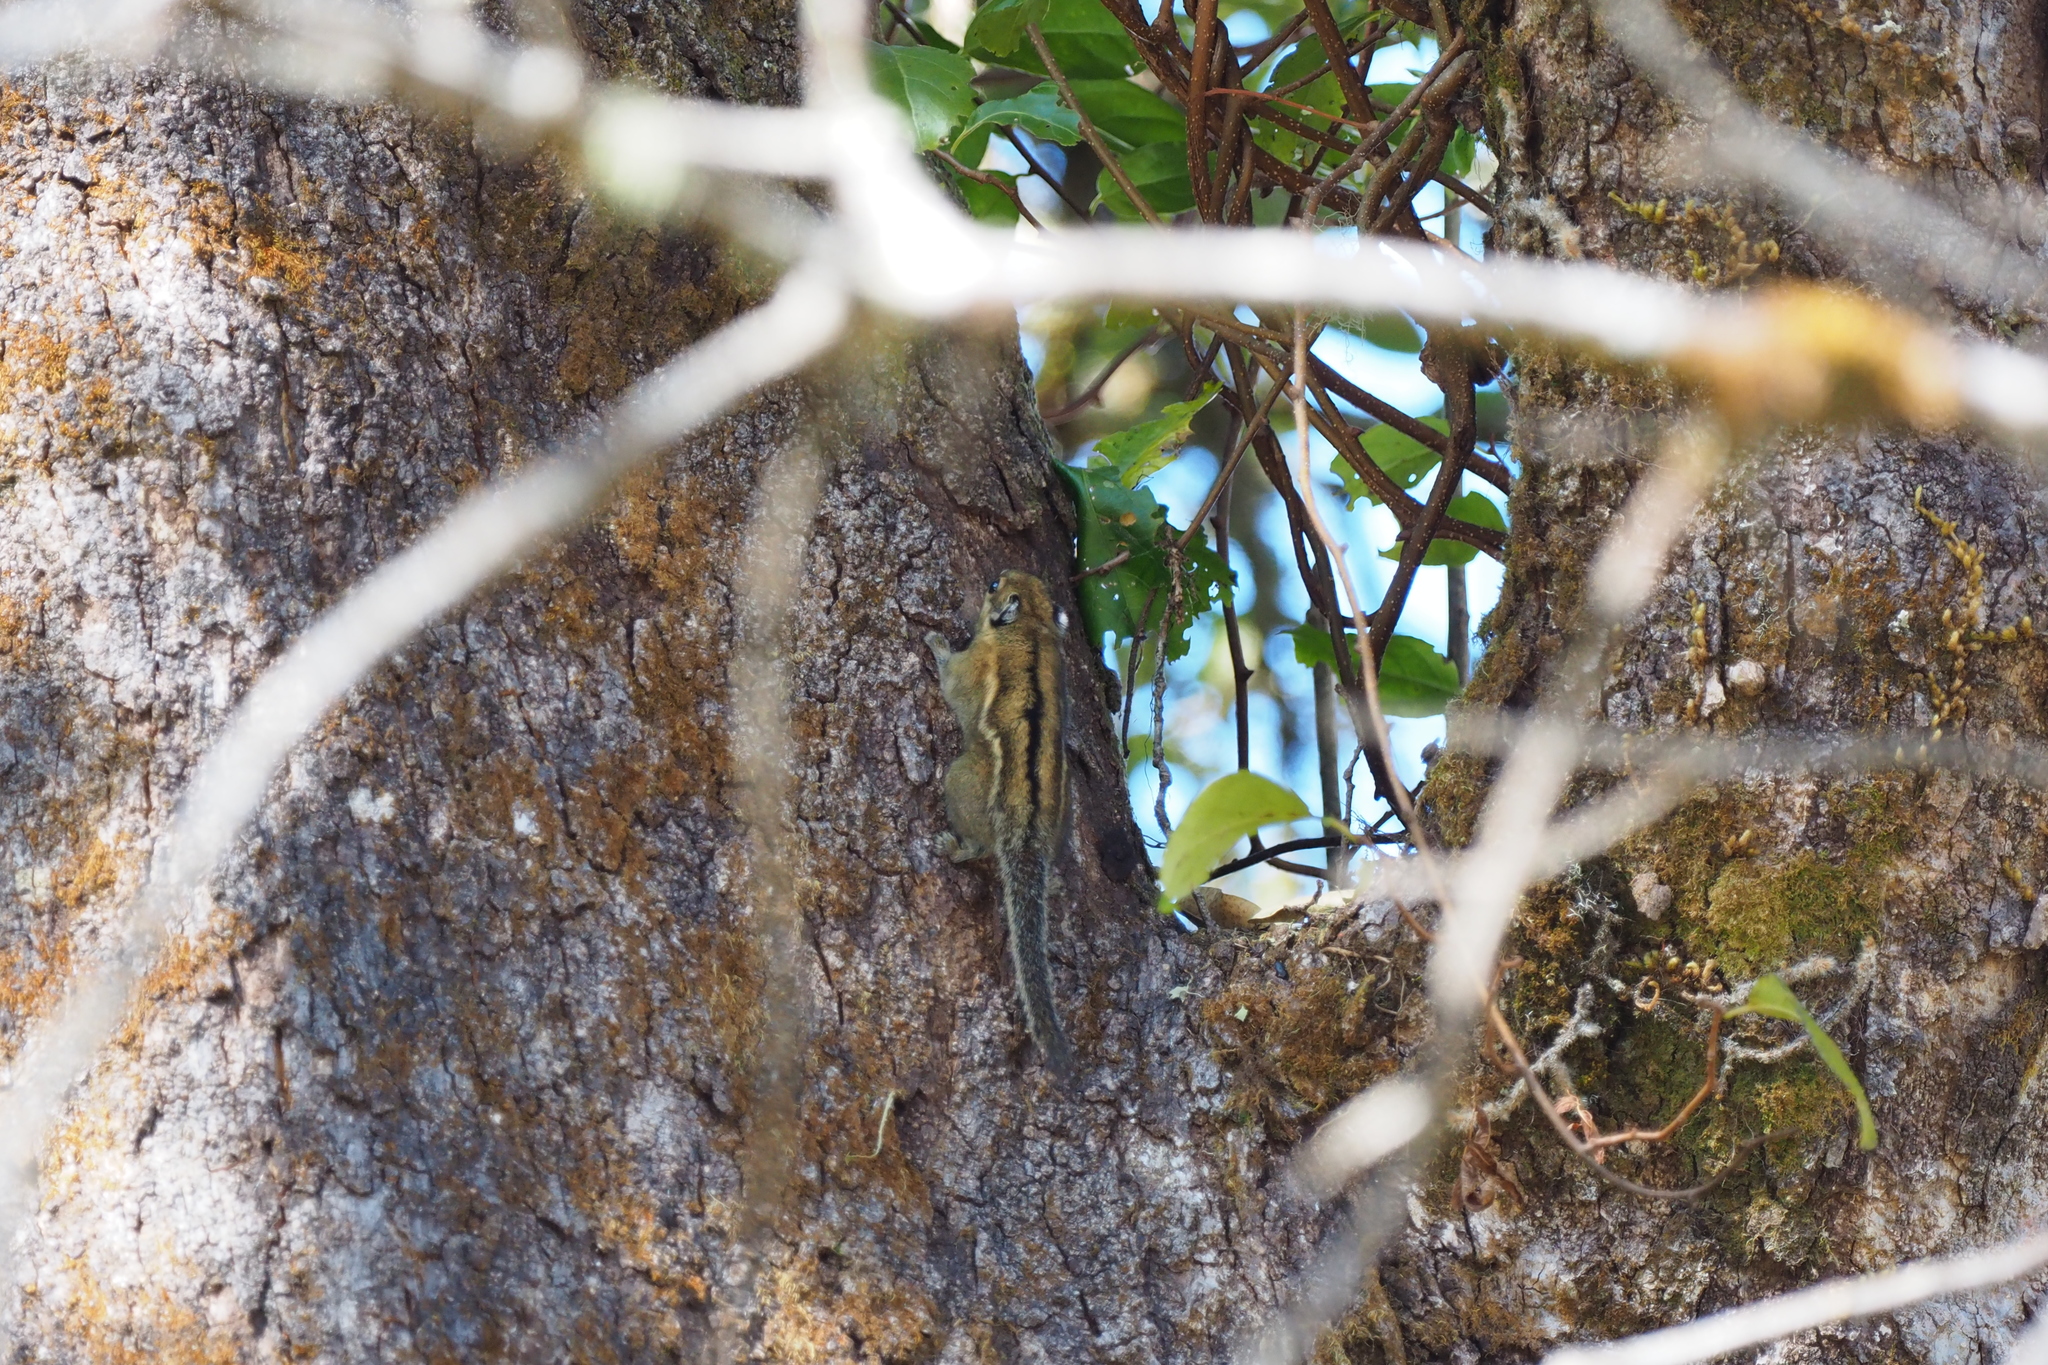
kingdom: Animalia
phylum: Chordata
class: Mammalia
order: Rodentia
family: Sciuridae
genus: Tamiops
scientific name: Tamiops mcclellandii
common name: Himalayan striped squirrel
